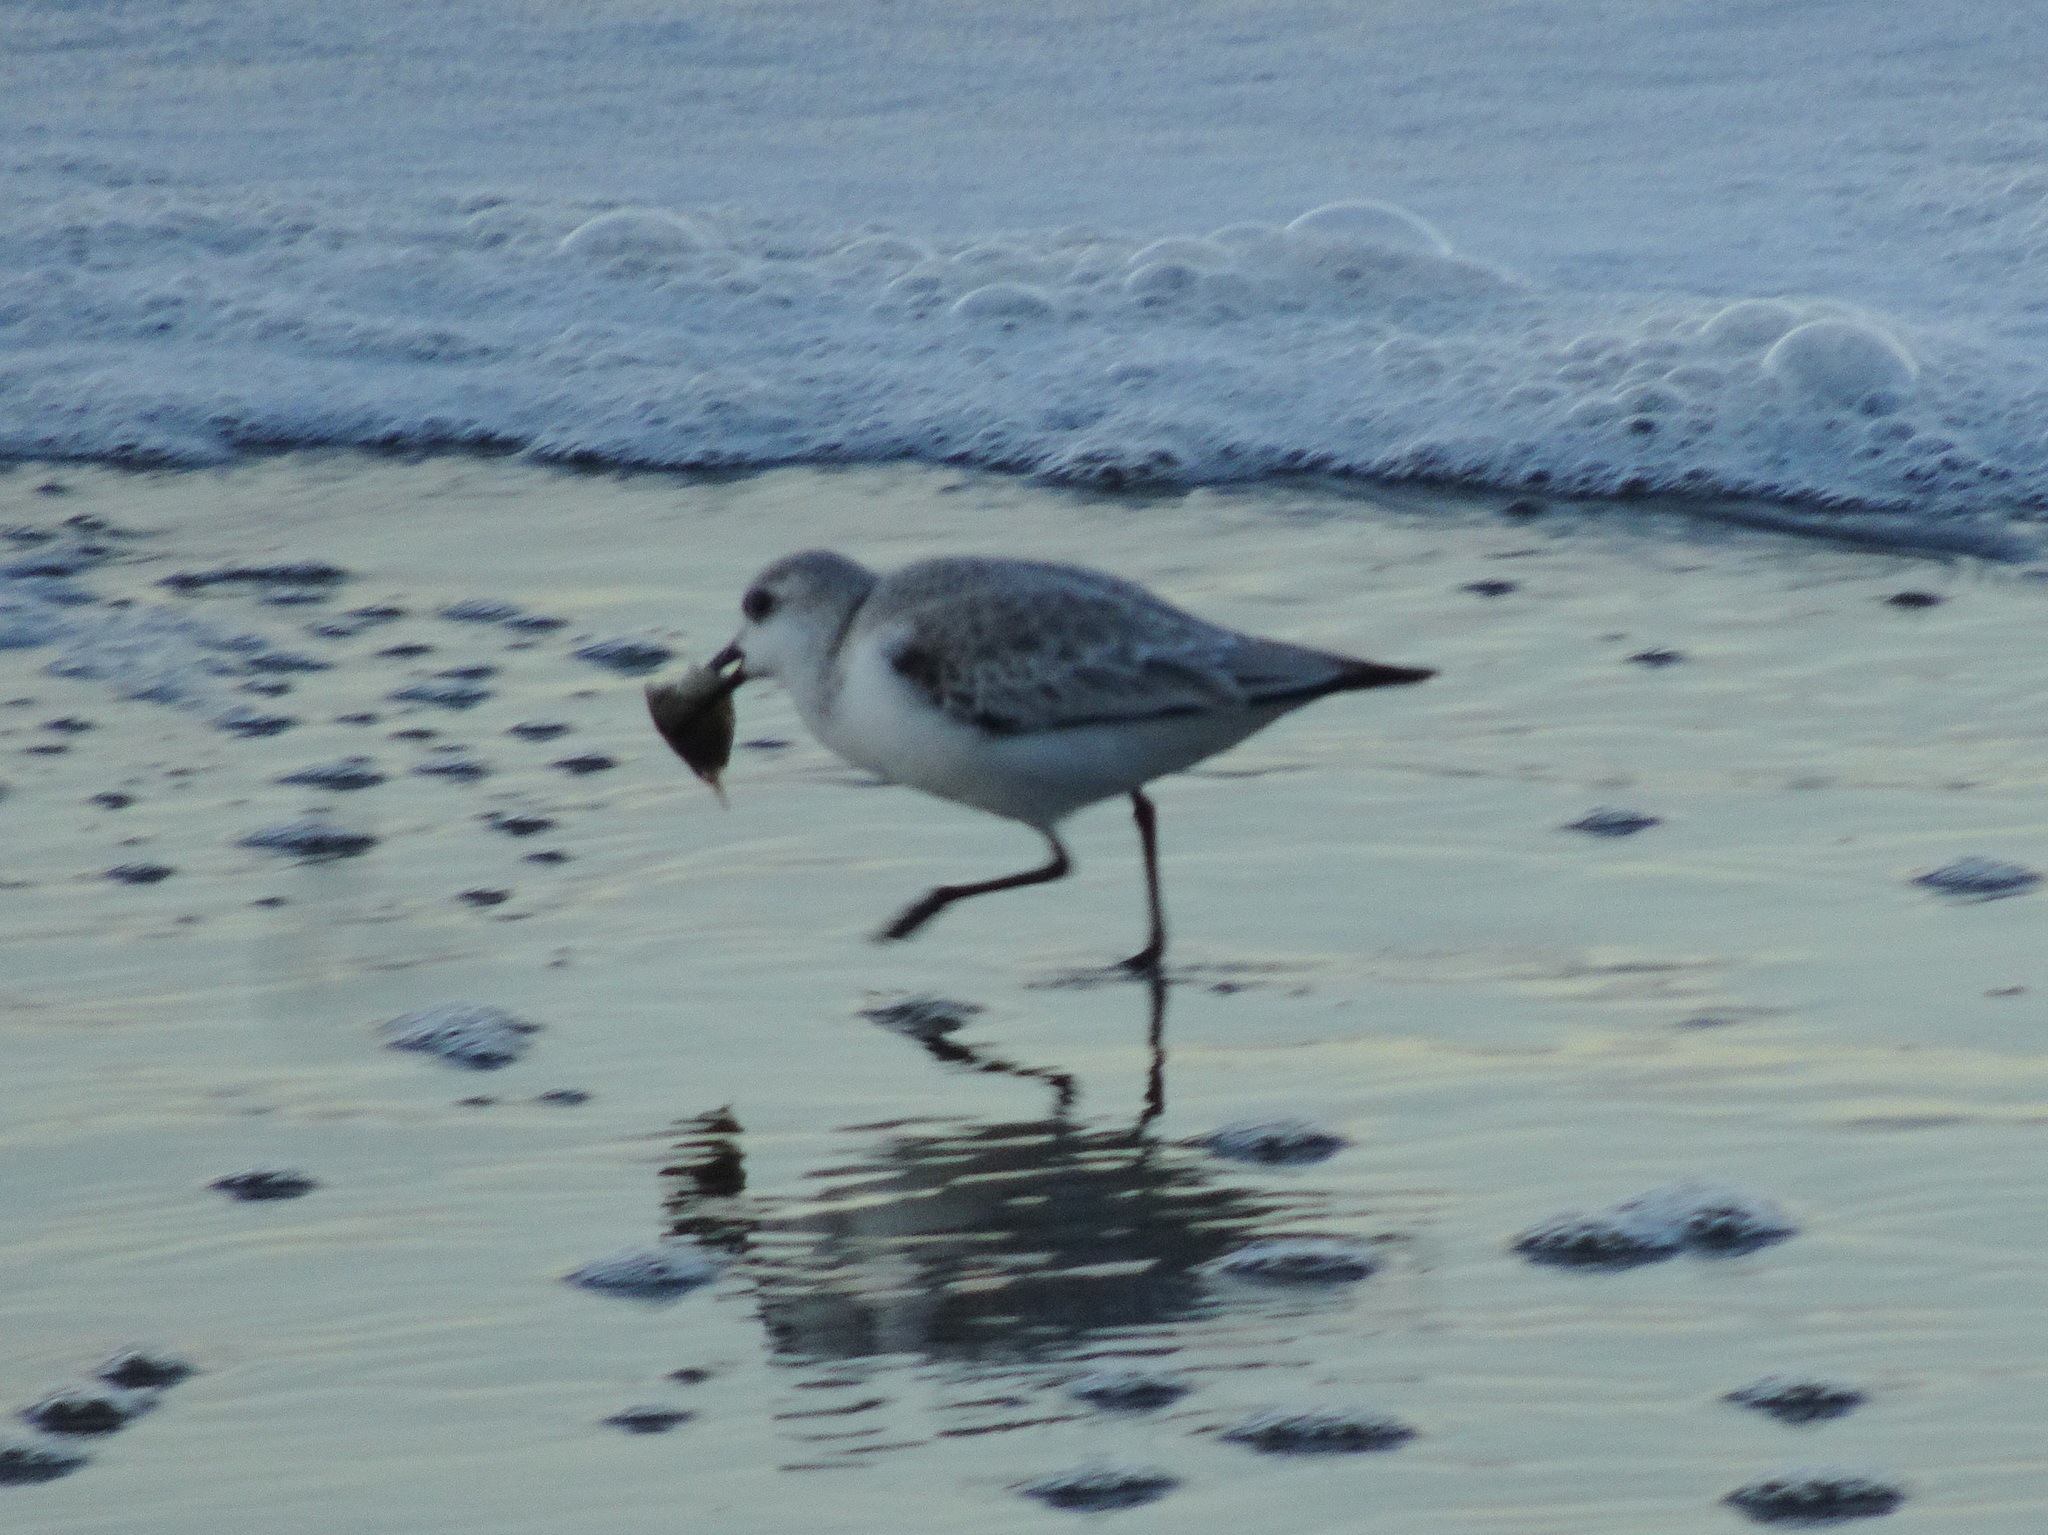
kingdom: Animalia
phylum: Chordata
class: Aves
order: Charadriiformes
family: Scolopacidae
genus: Calidris
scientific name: Calidris alba
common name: Sanderling
